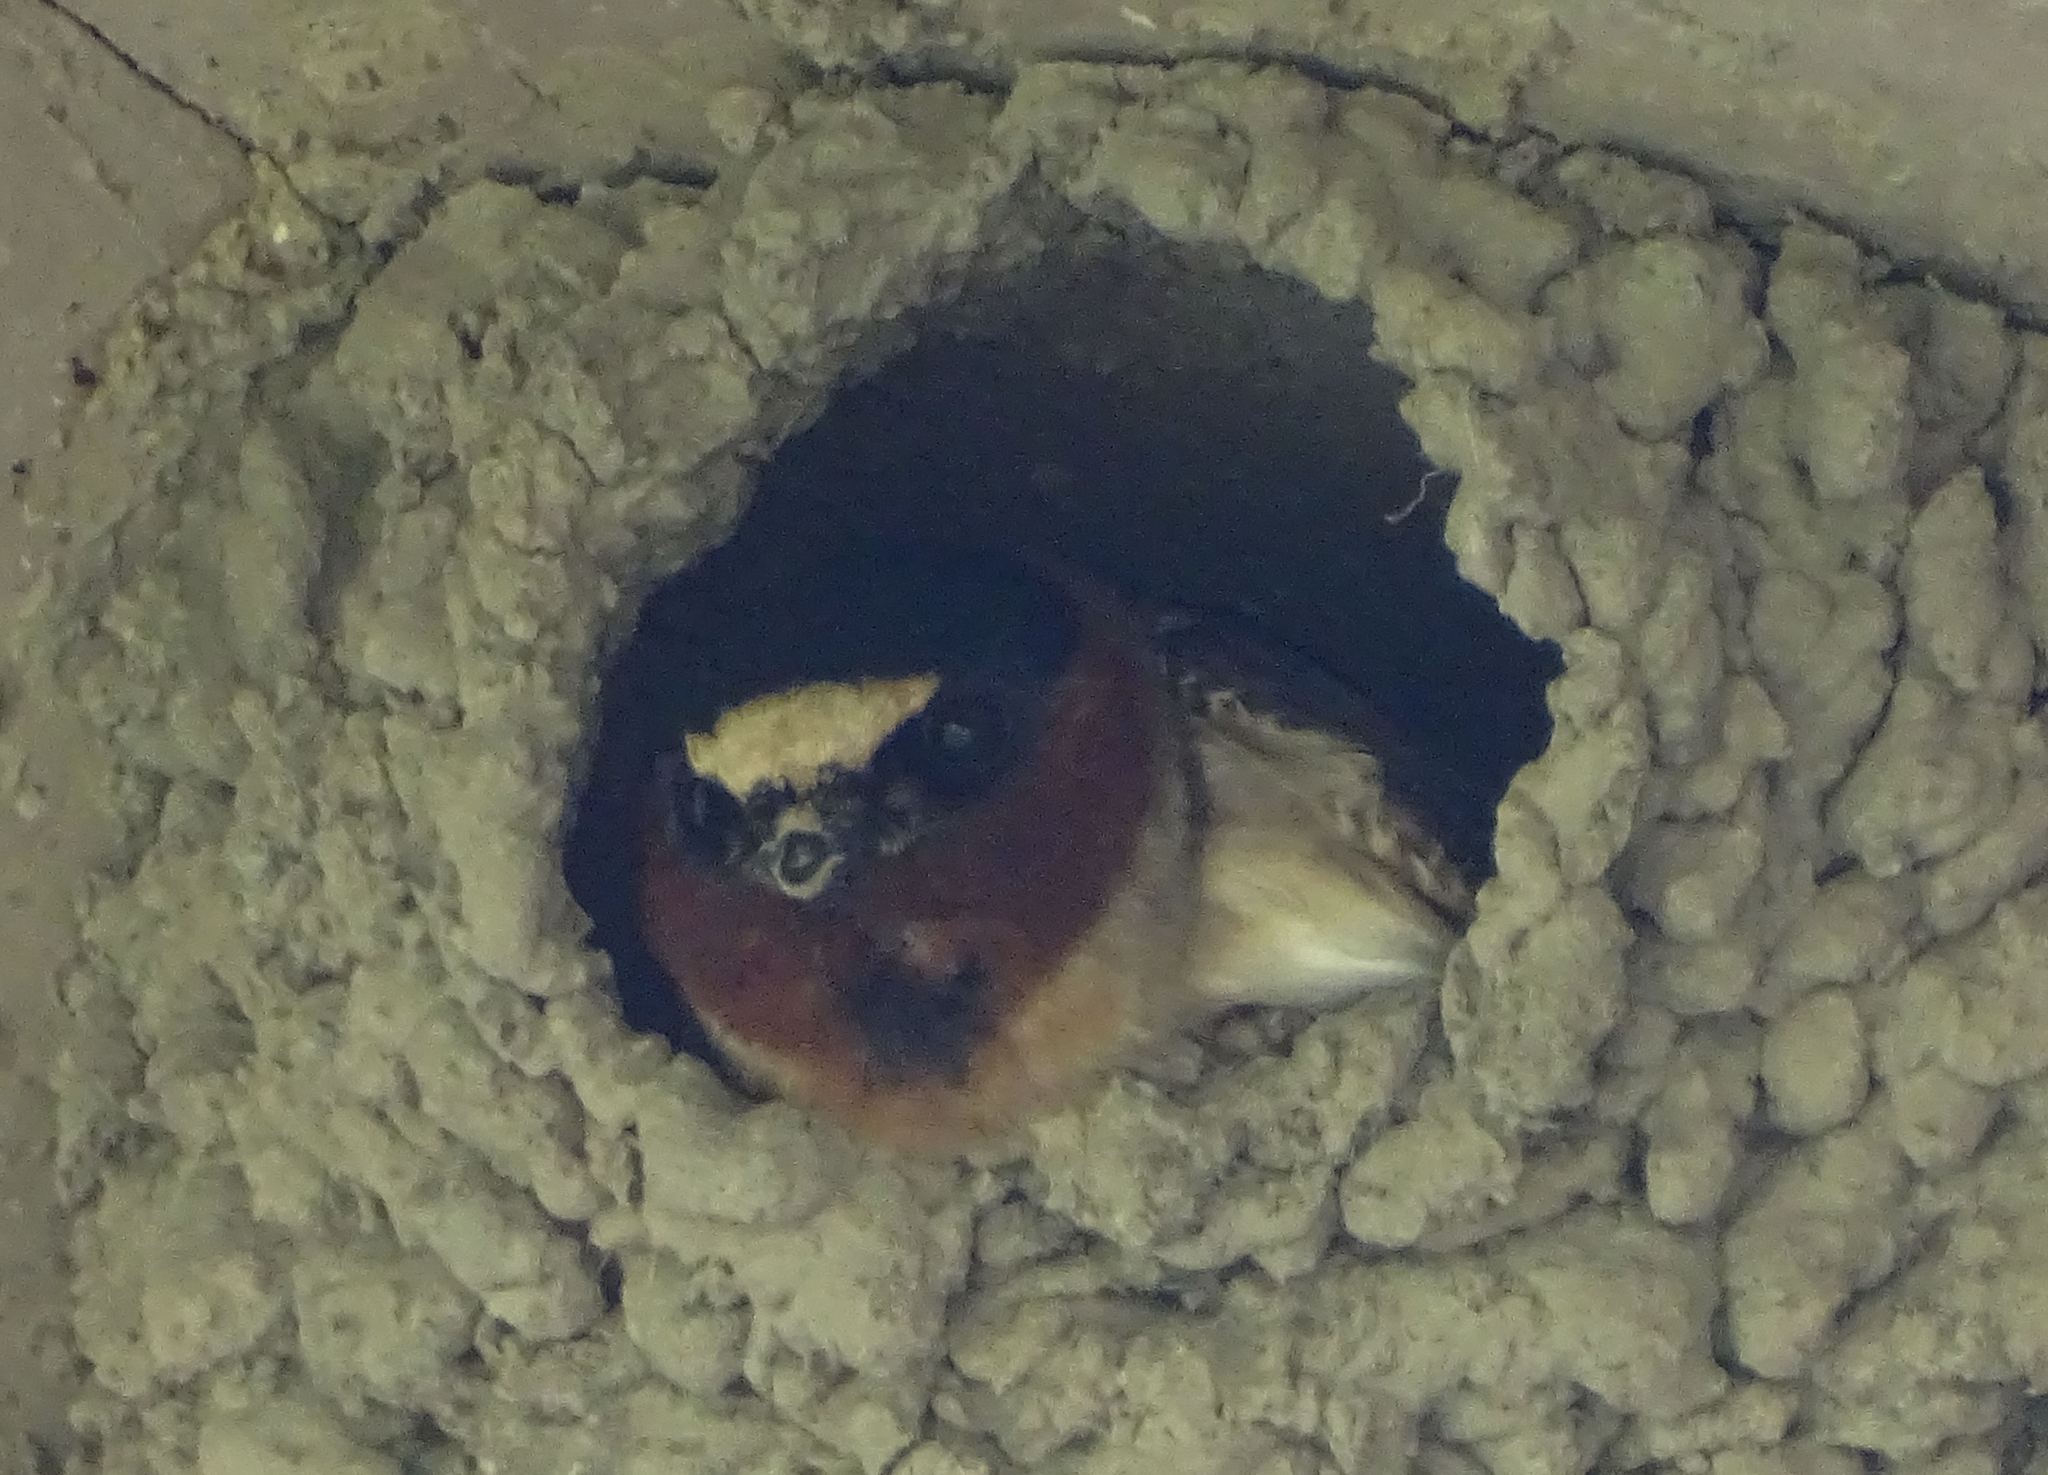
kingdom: Animalia
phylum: Chordata
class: Aves
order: Passeriformes
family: Hirundinidae
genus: Petrochelidon
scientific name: Petrochelidon pyrrhonota
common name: American cliff swallow
